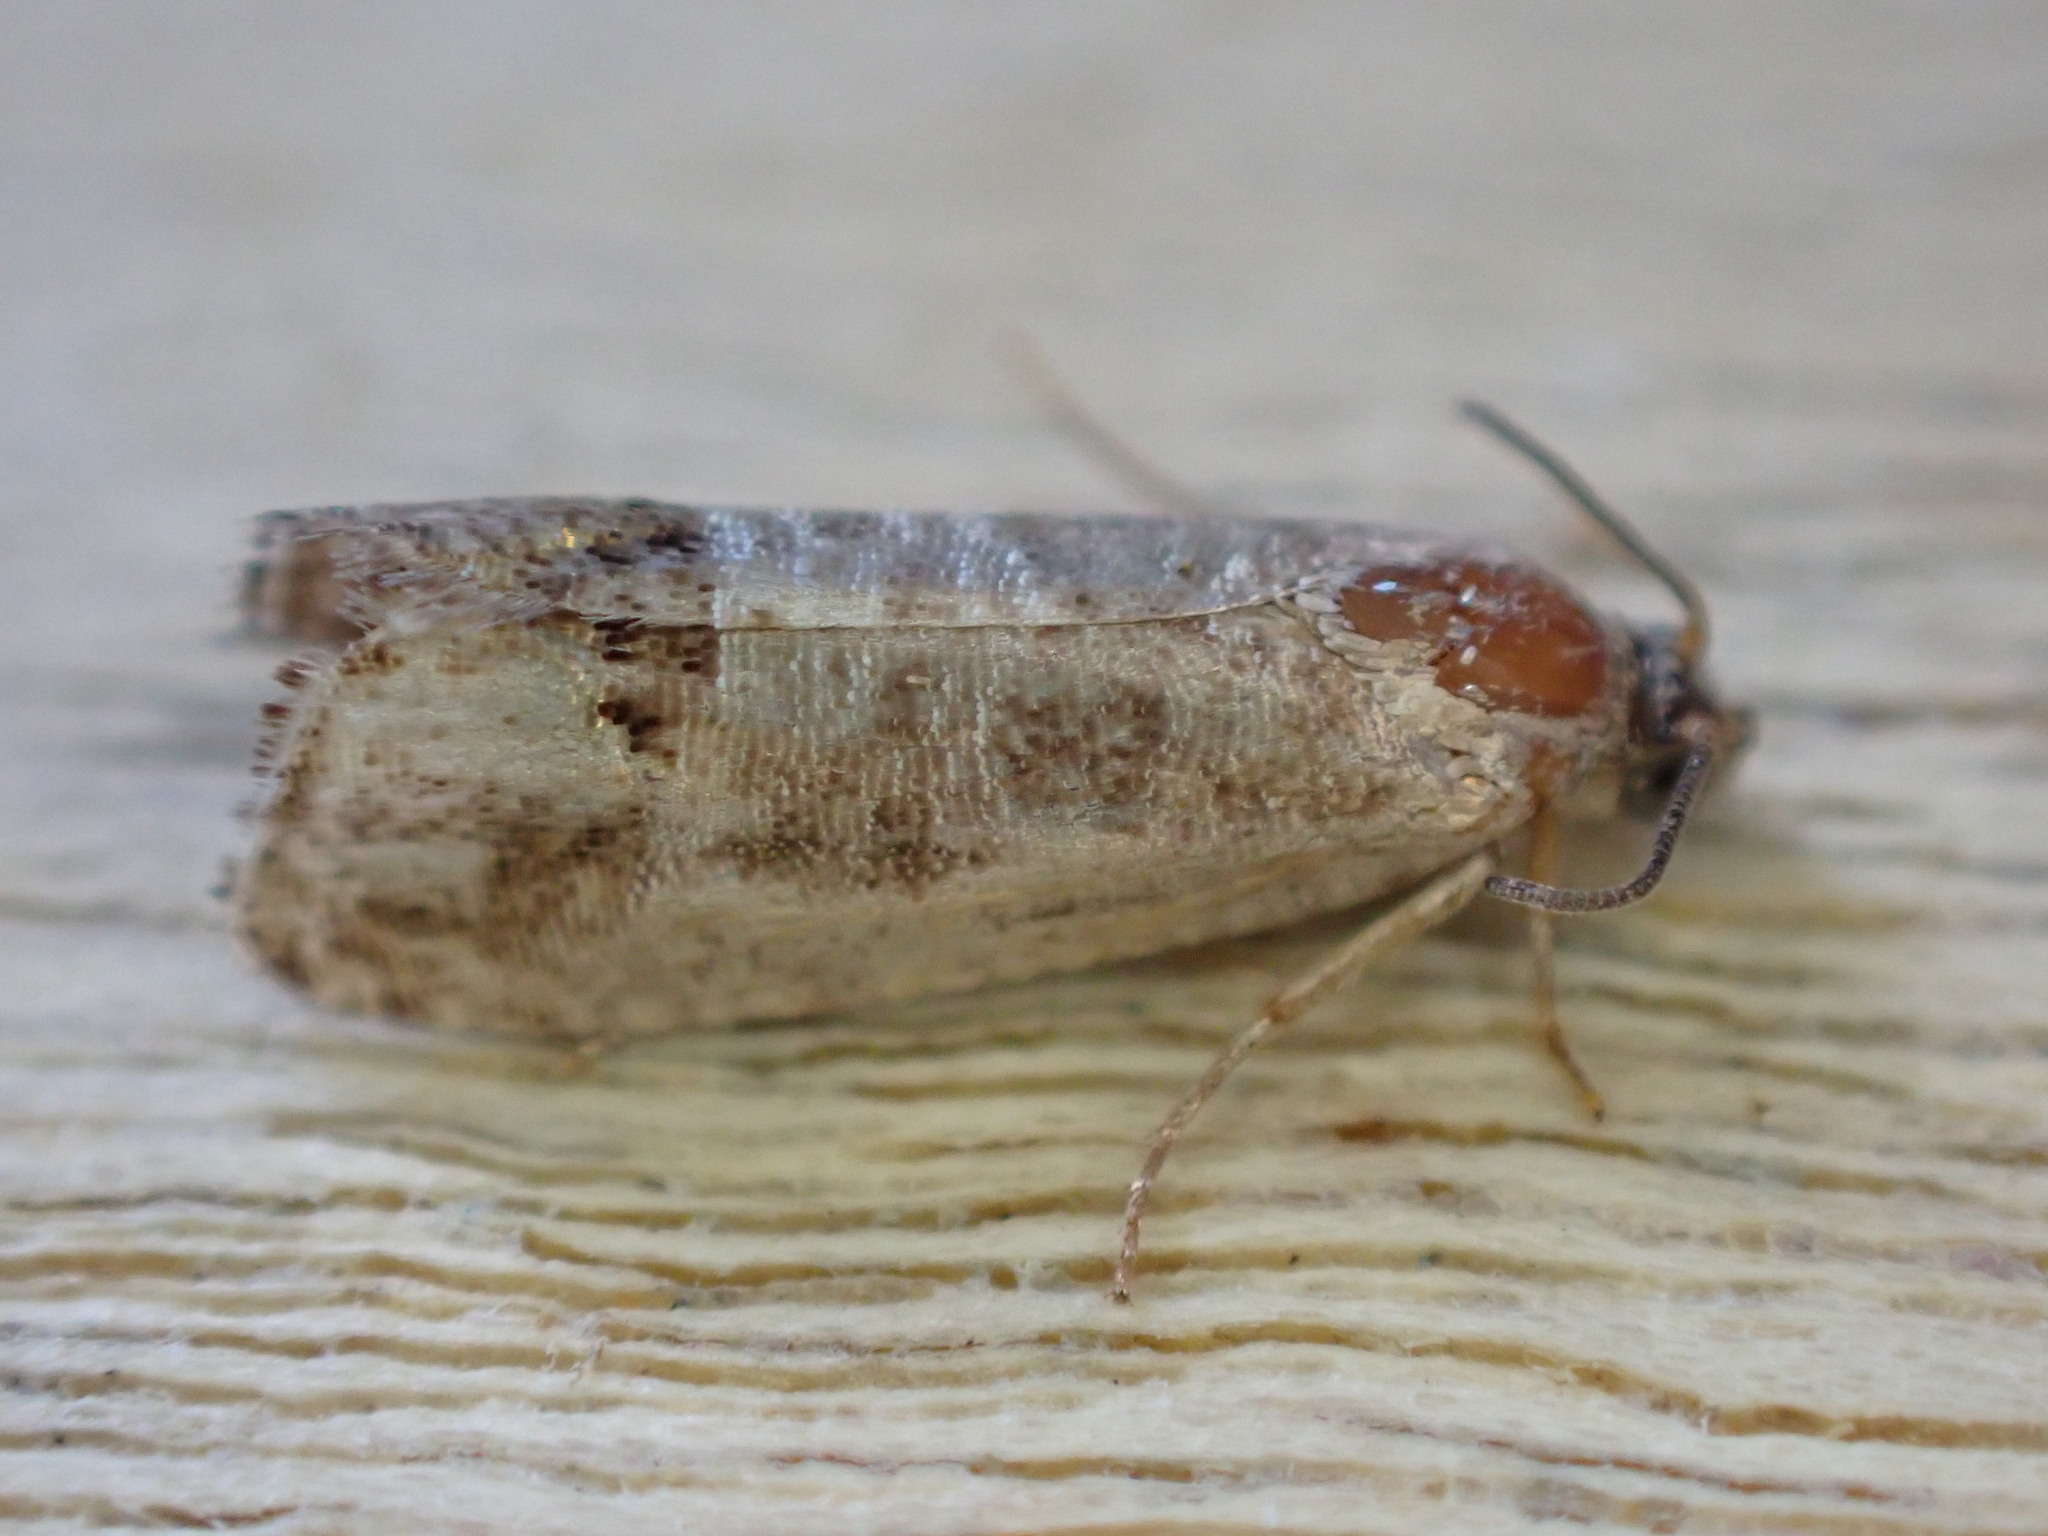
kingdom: Animalia
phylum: Arthropoda
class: Insecta
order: Lepidoptera
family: Tortricidae
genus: Cydia
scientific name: Cydia pomonella
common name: Codling moth
